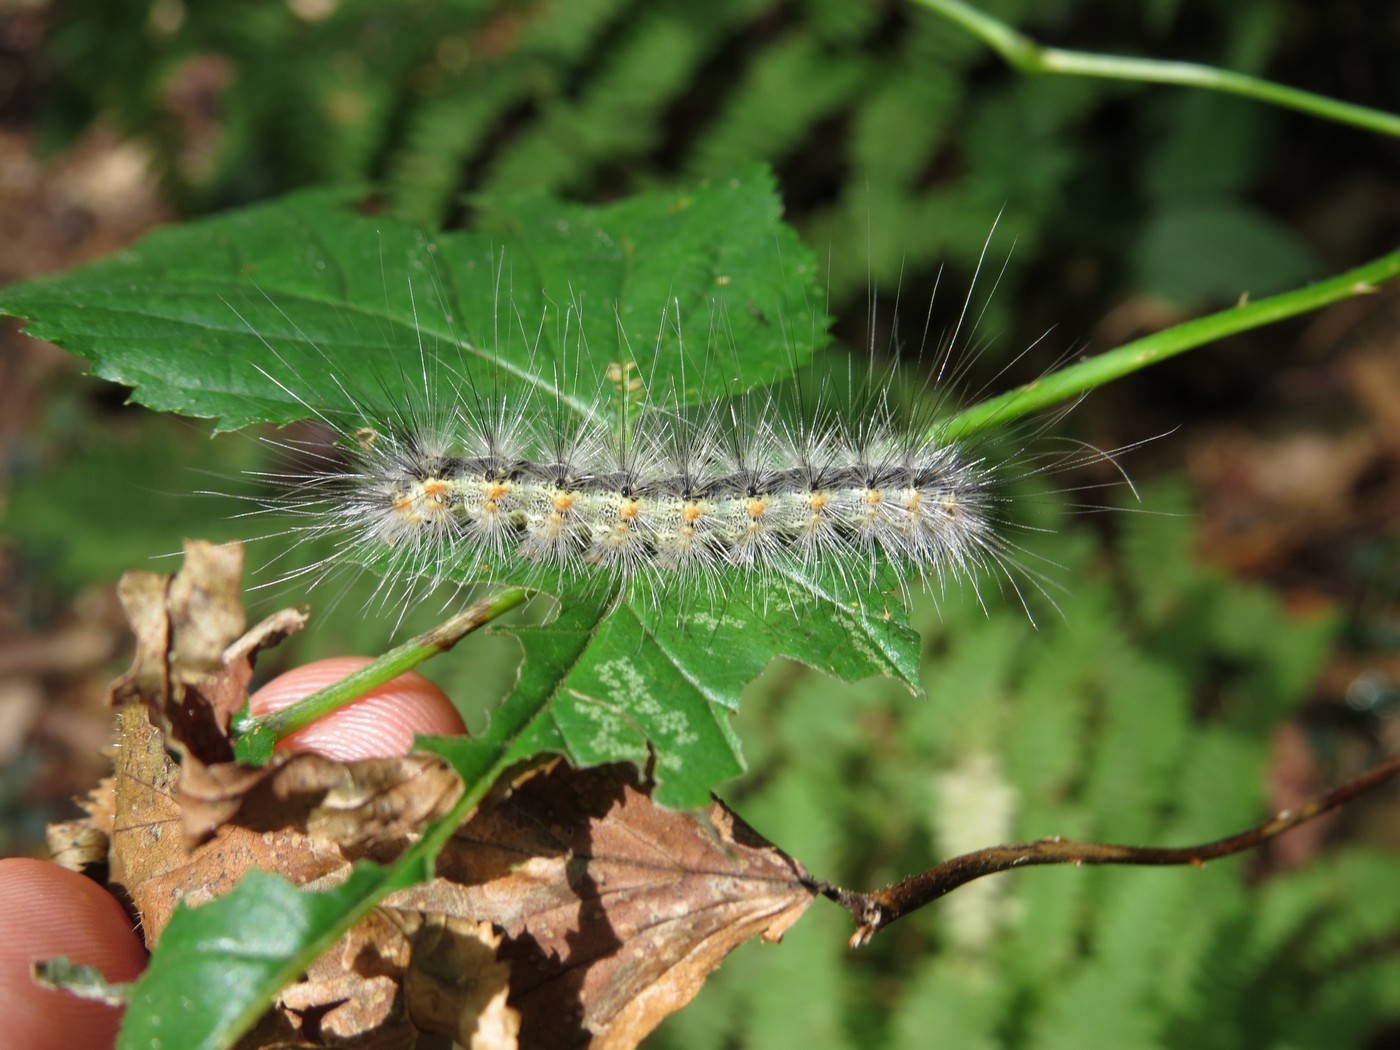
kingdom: Animalia
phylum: Arthropoda
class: Insecta
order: Lepidoptera
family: Erebidae
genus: Hyphantria
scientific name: Hyphantria cunea
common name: American white moth
